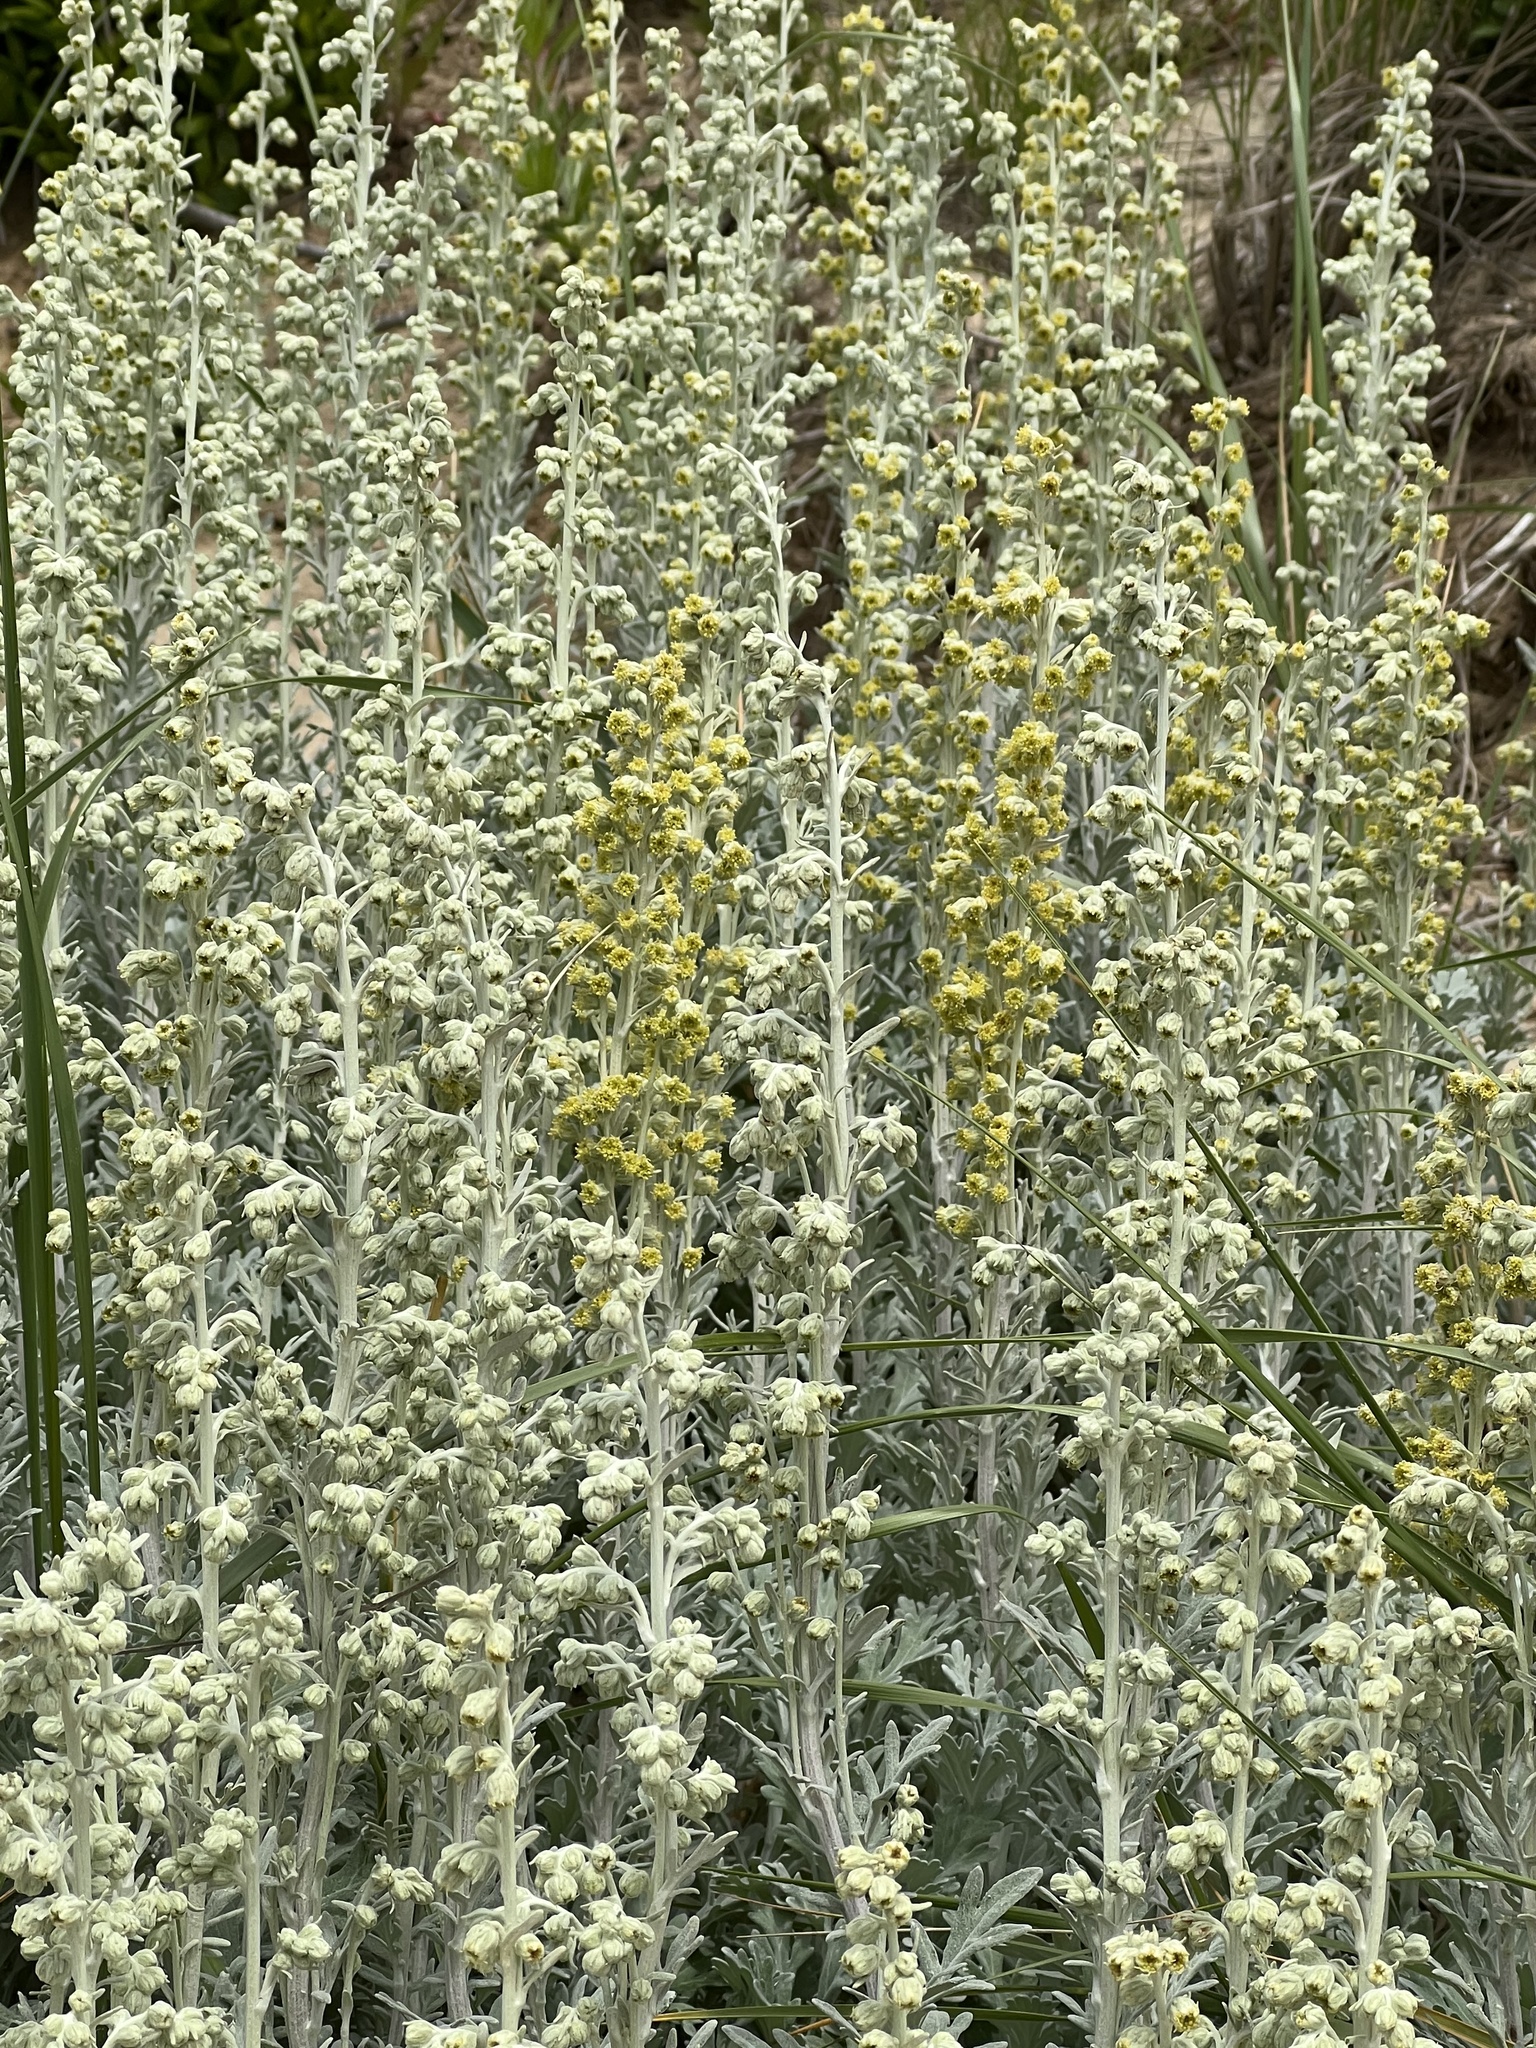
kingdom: Plantae
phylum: Tracheophyta
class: Magnoliopsida
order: Asterales
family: Asteraceae
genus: Artemisia
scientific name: Artemisia stelleriana
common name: Beach wormwood
